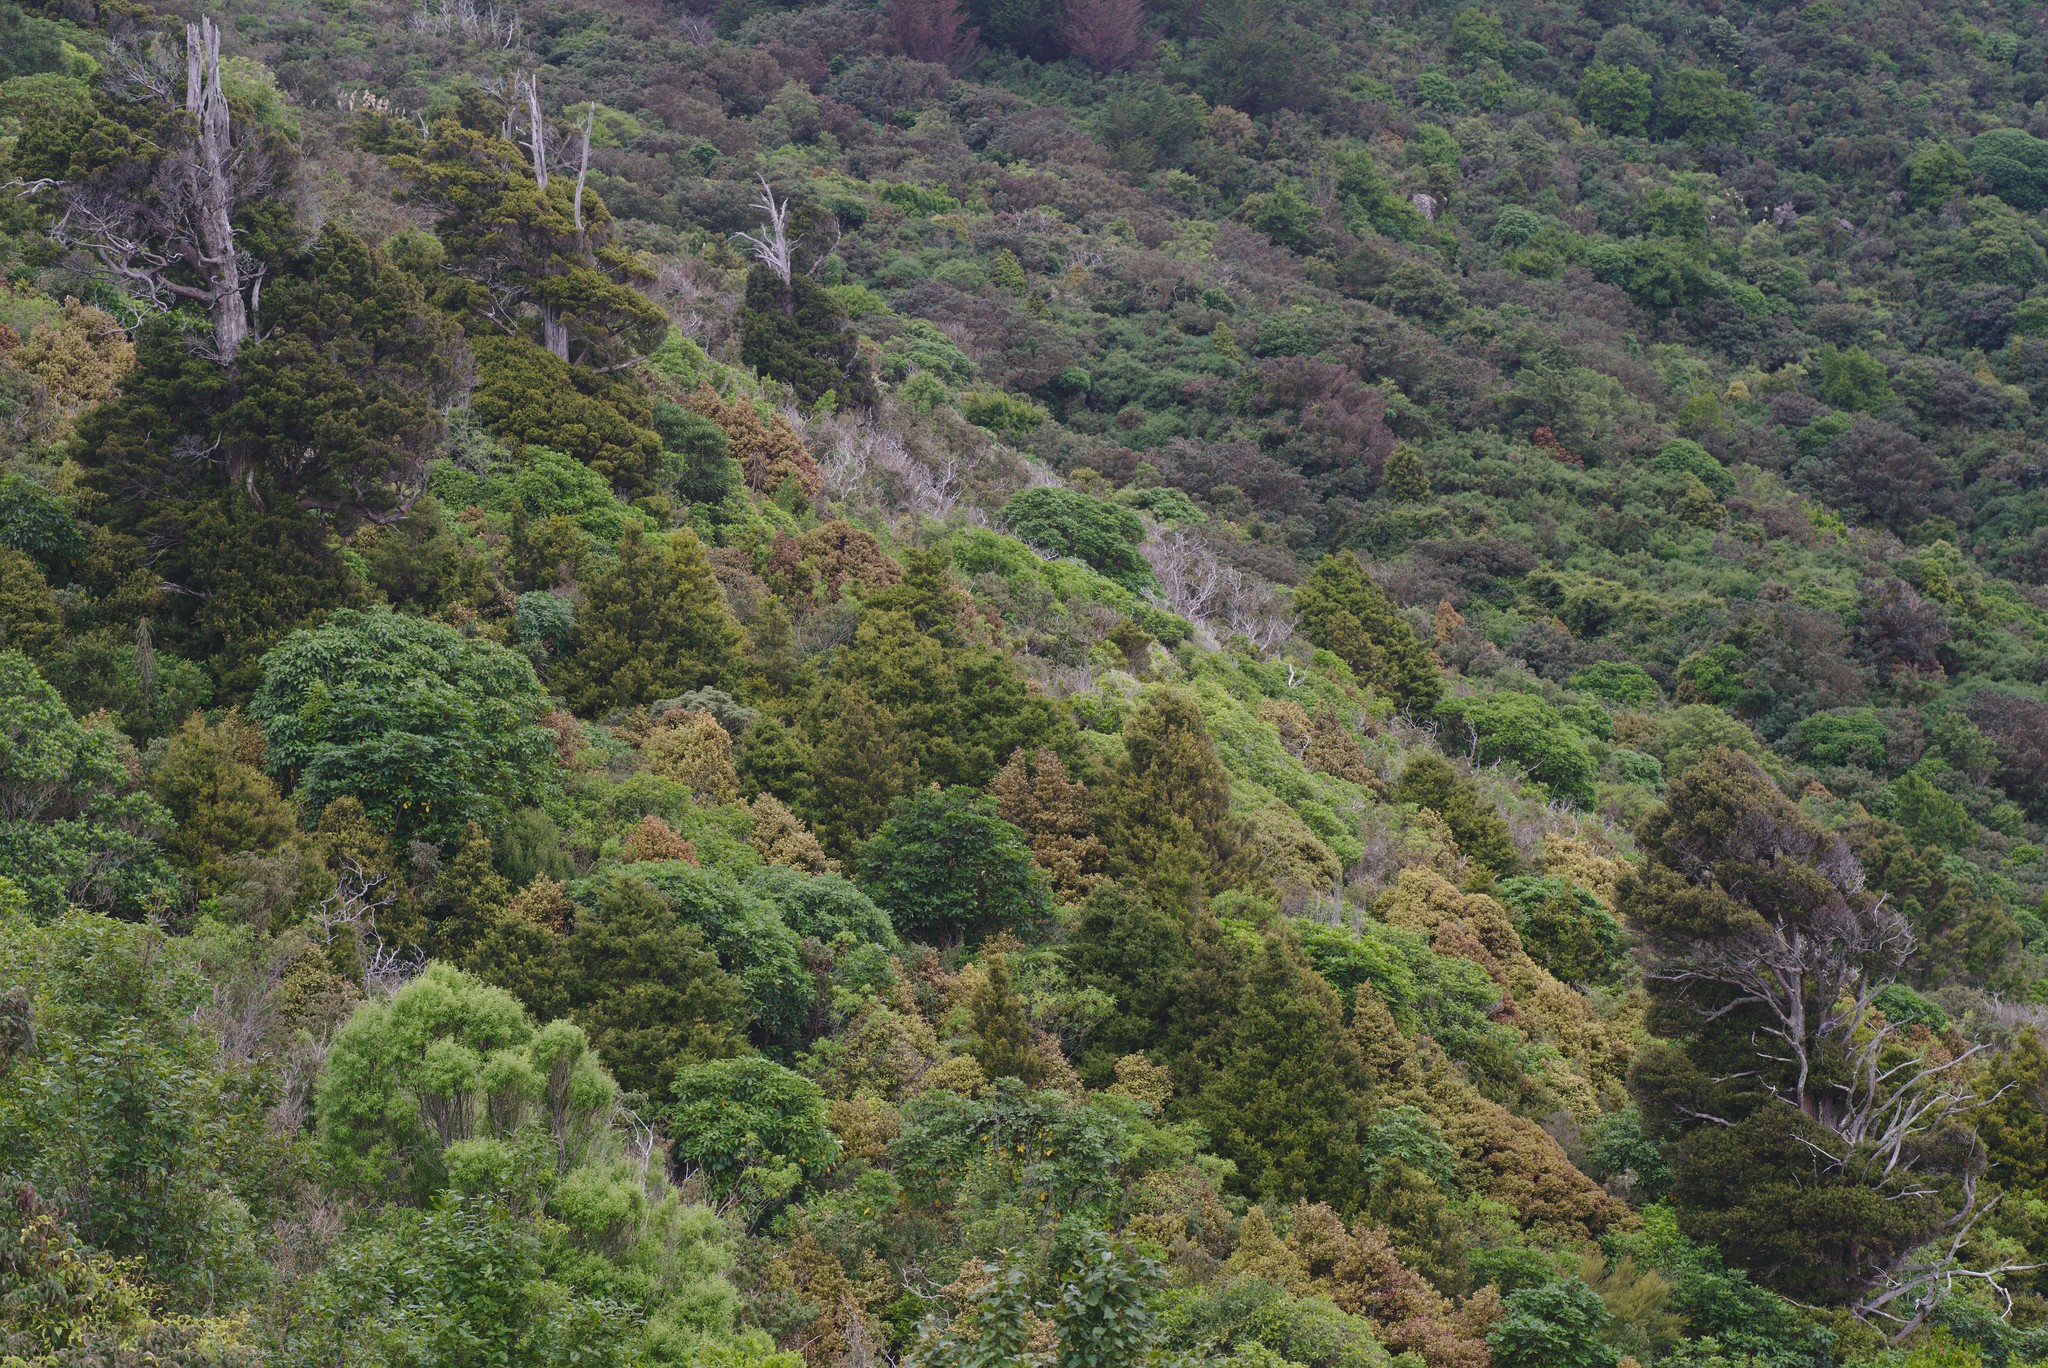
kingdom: Plantae
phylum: Tracheophyta
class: Magnoliopsida
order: Apiales
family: Araliaceae
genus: Neopanax
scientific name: Neopanax arboreus
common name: Five-fingers
